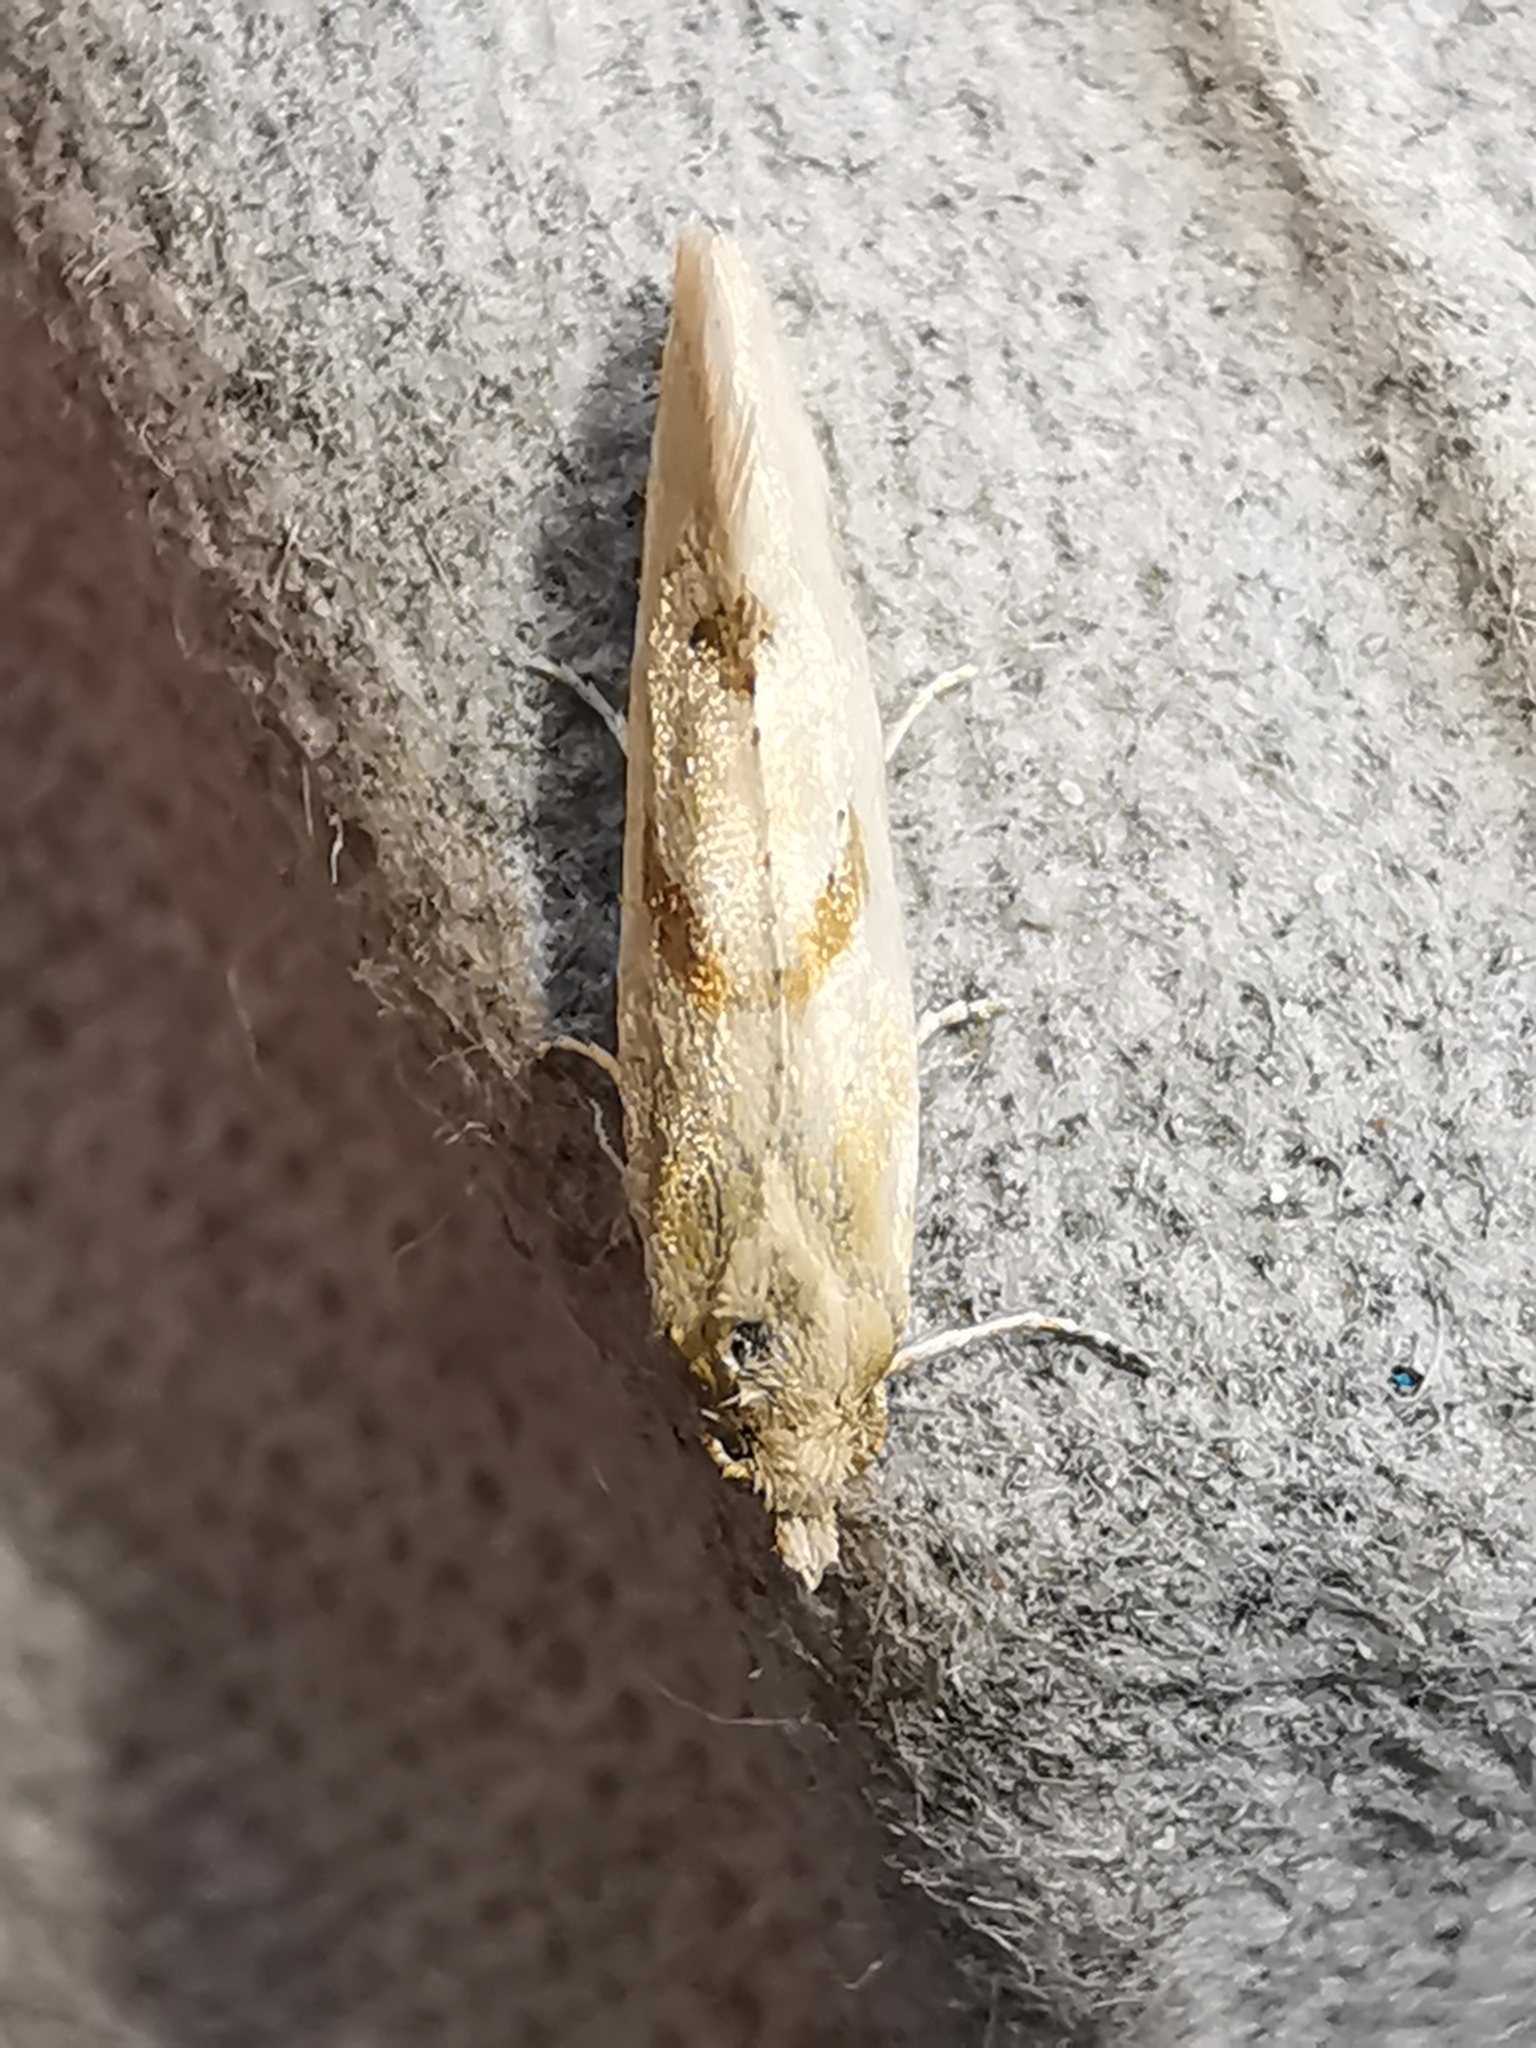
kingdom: Animalia
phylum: Arthropoda
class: Insecta
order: Lepidoptera
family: Tortricidae
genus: Aethes
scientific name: Aethes smeathmanniana
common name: Yarrow conch
